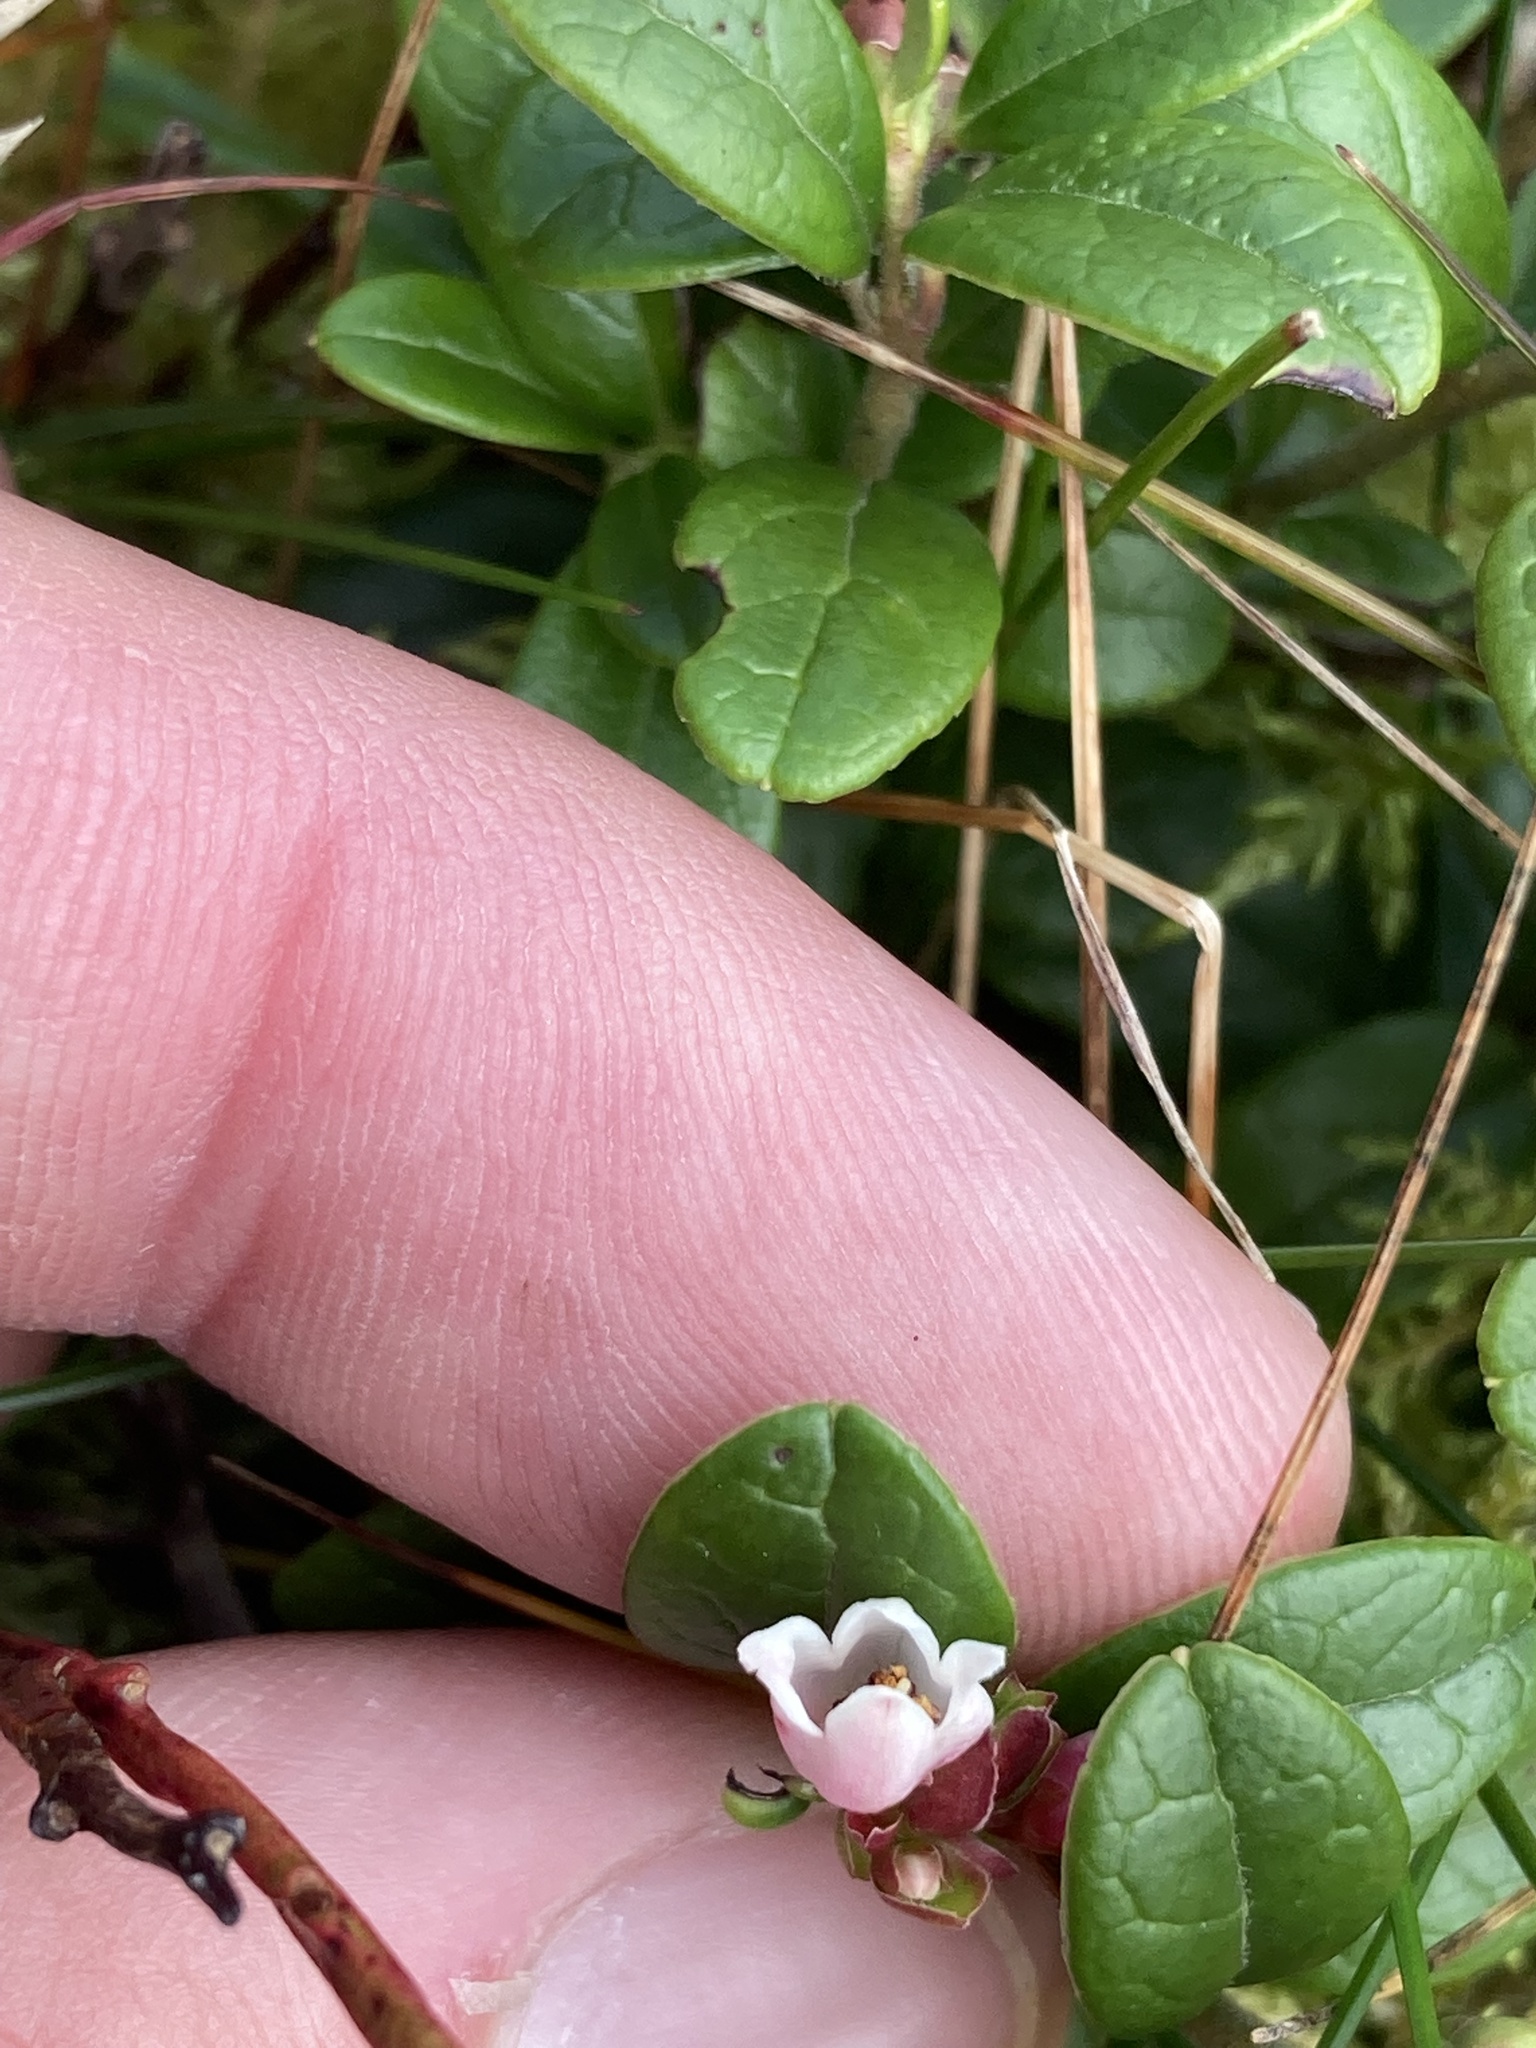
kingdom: Plantae
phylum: Tracheophyta
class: Magnoliopsida
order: Ericales
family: Ericaceae
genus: Vaccinium
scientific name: Vaccinium vitis-idaea
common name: Cowberry
